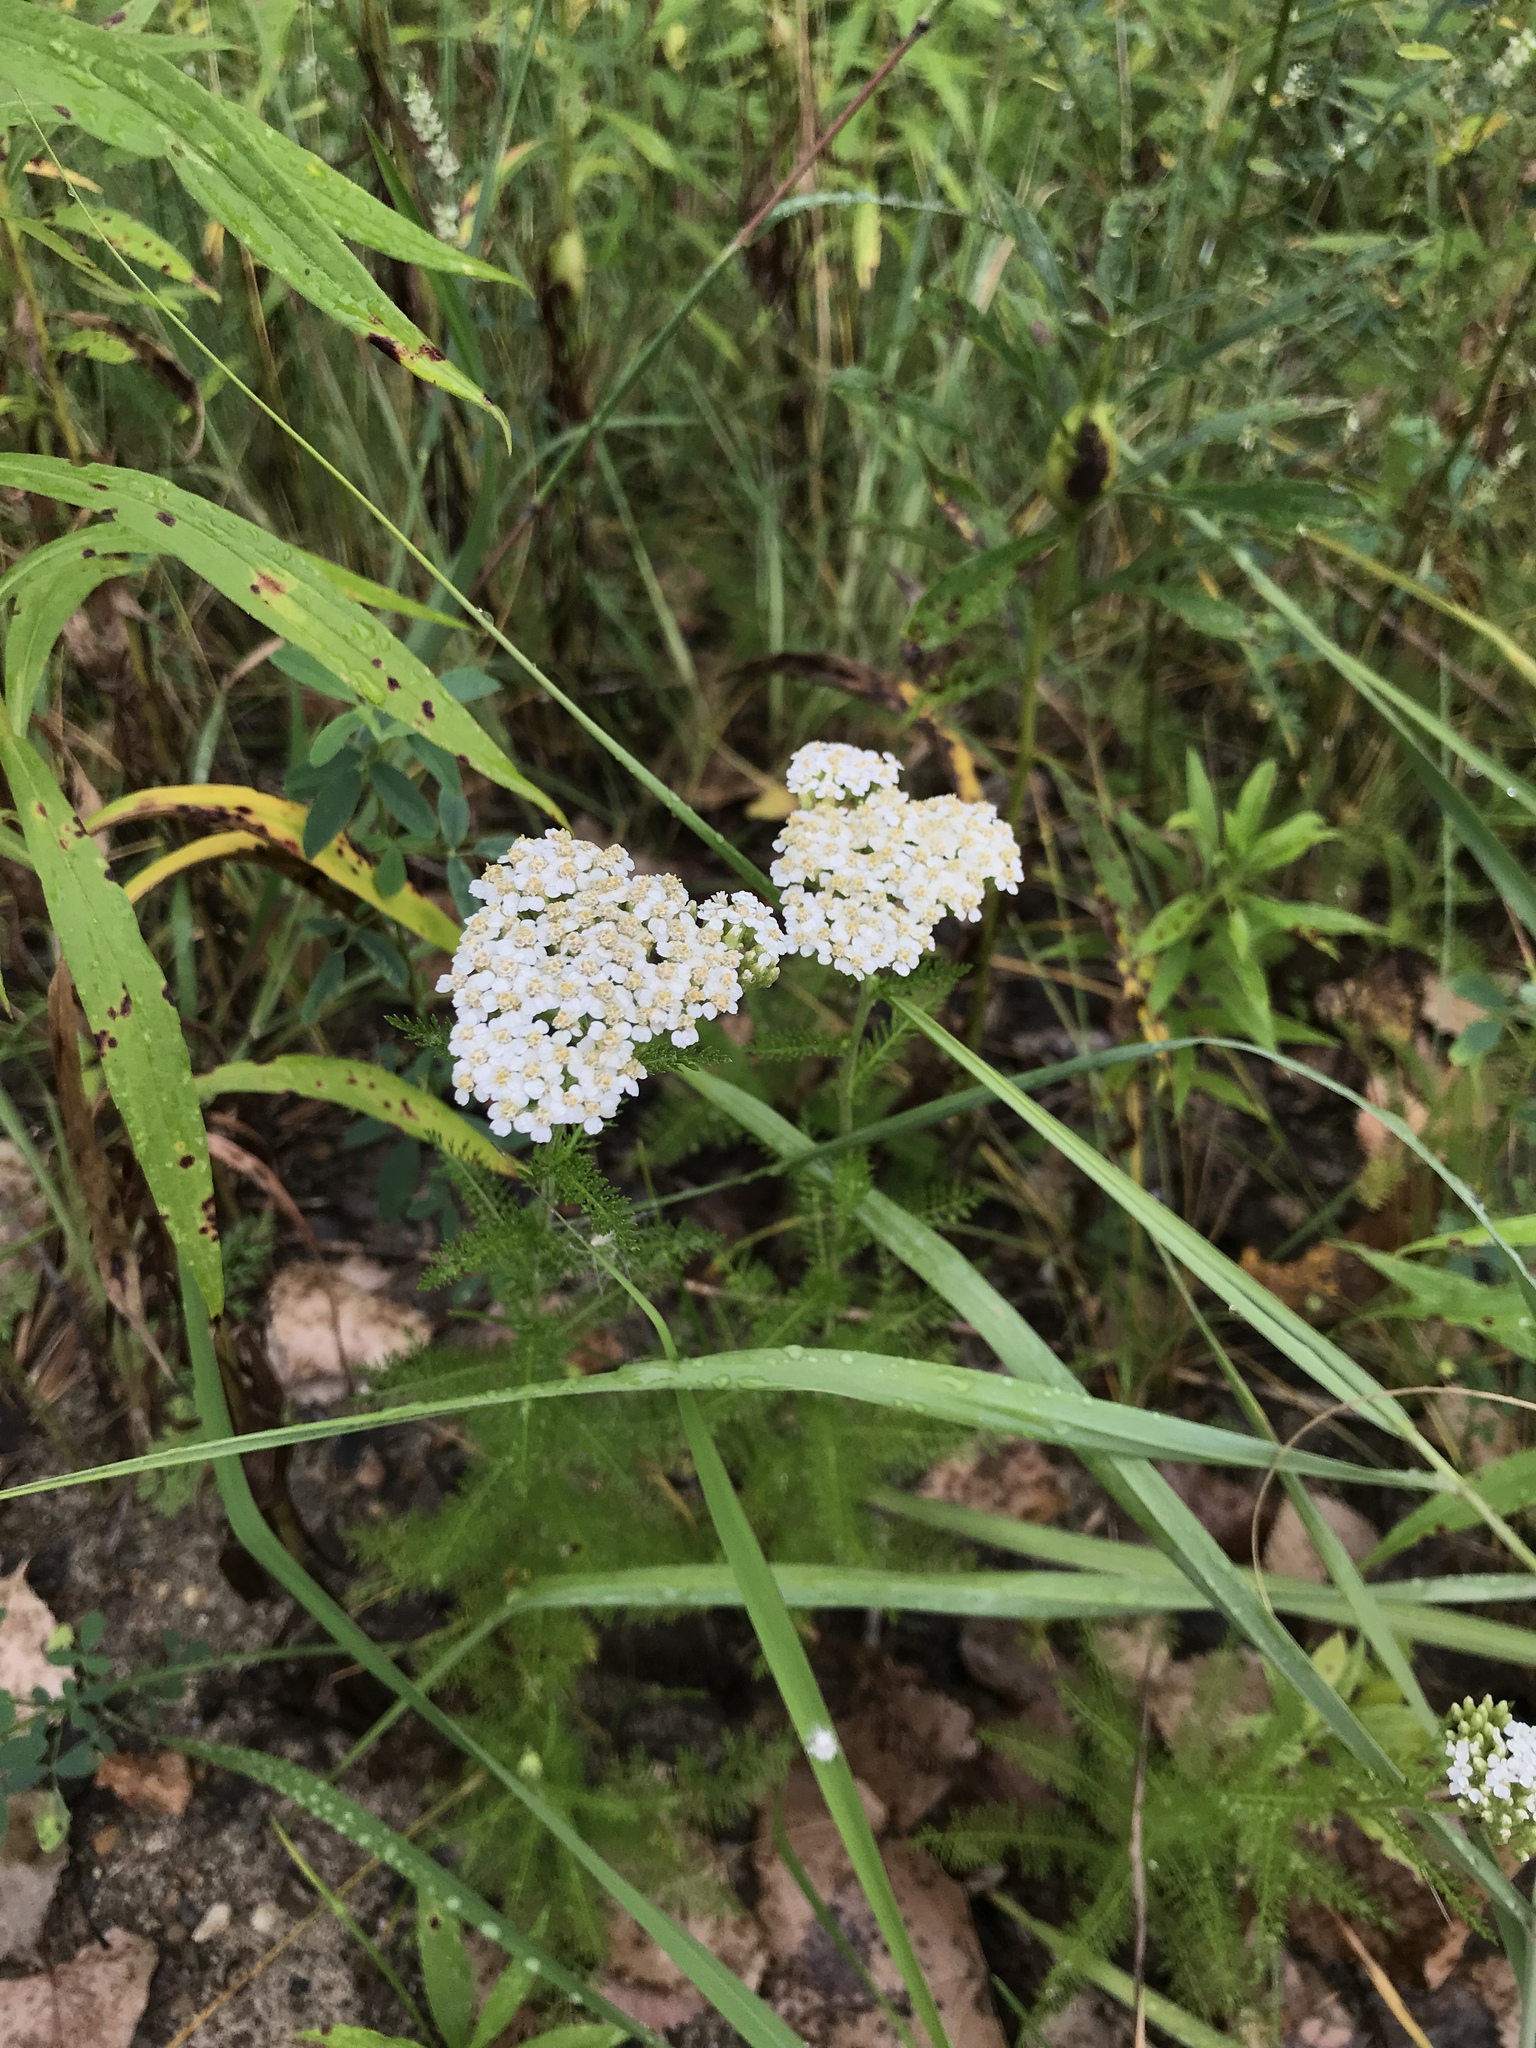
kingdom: Plantae
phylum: Tracheophyta
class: Magnoliopsida
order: Asterales
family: Asteraceae
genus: Achillea
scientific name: Achillea millefolium
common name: Yarrow
